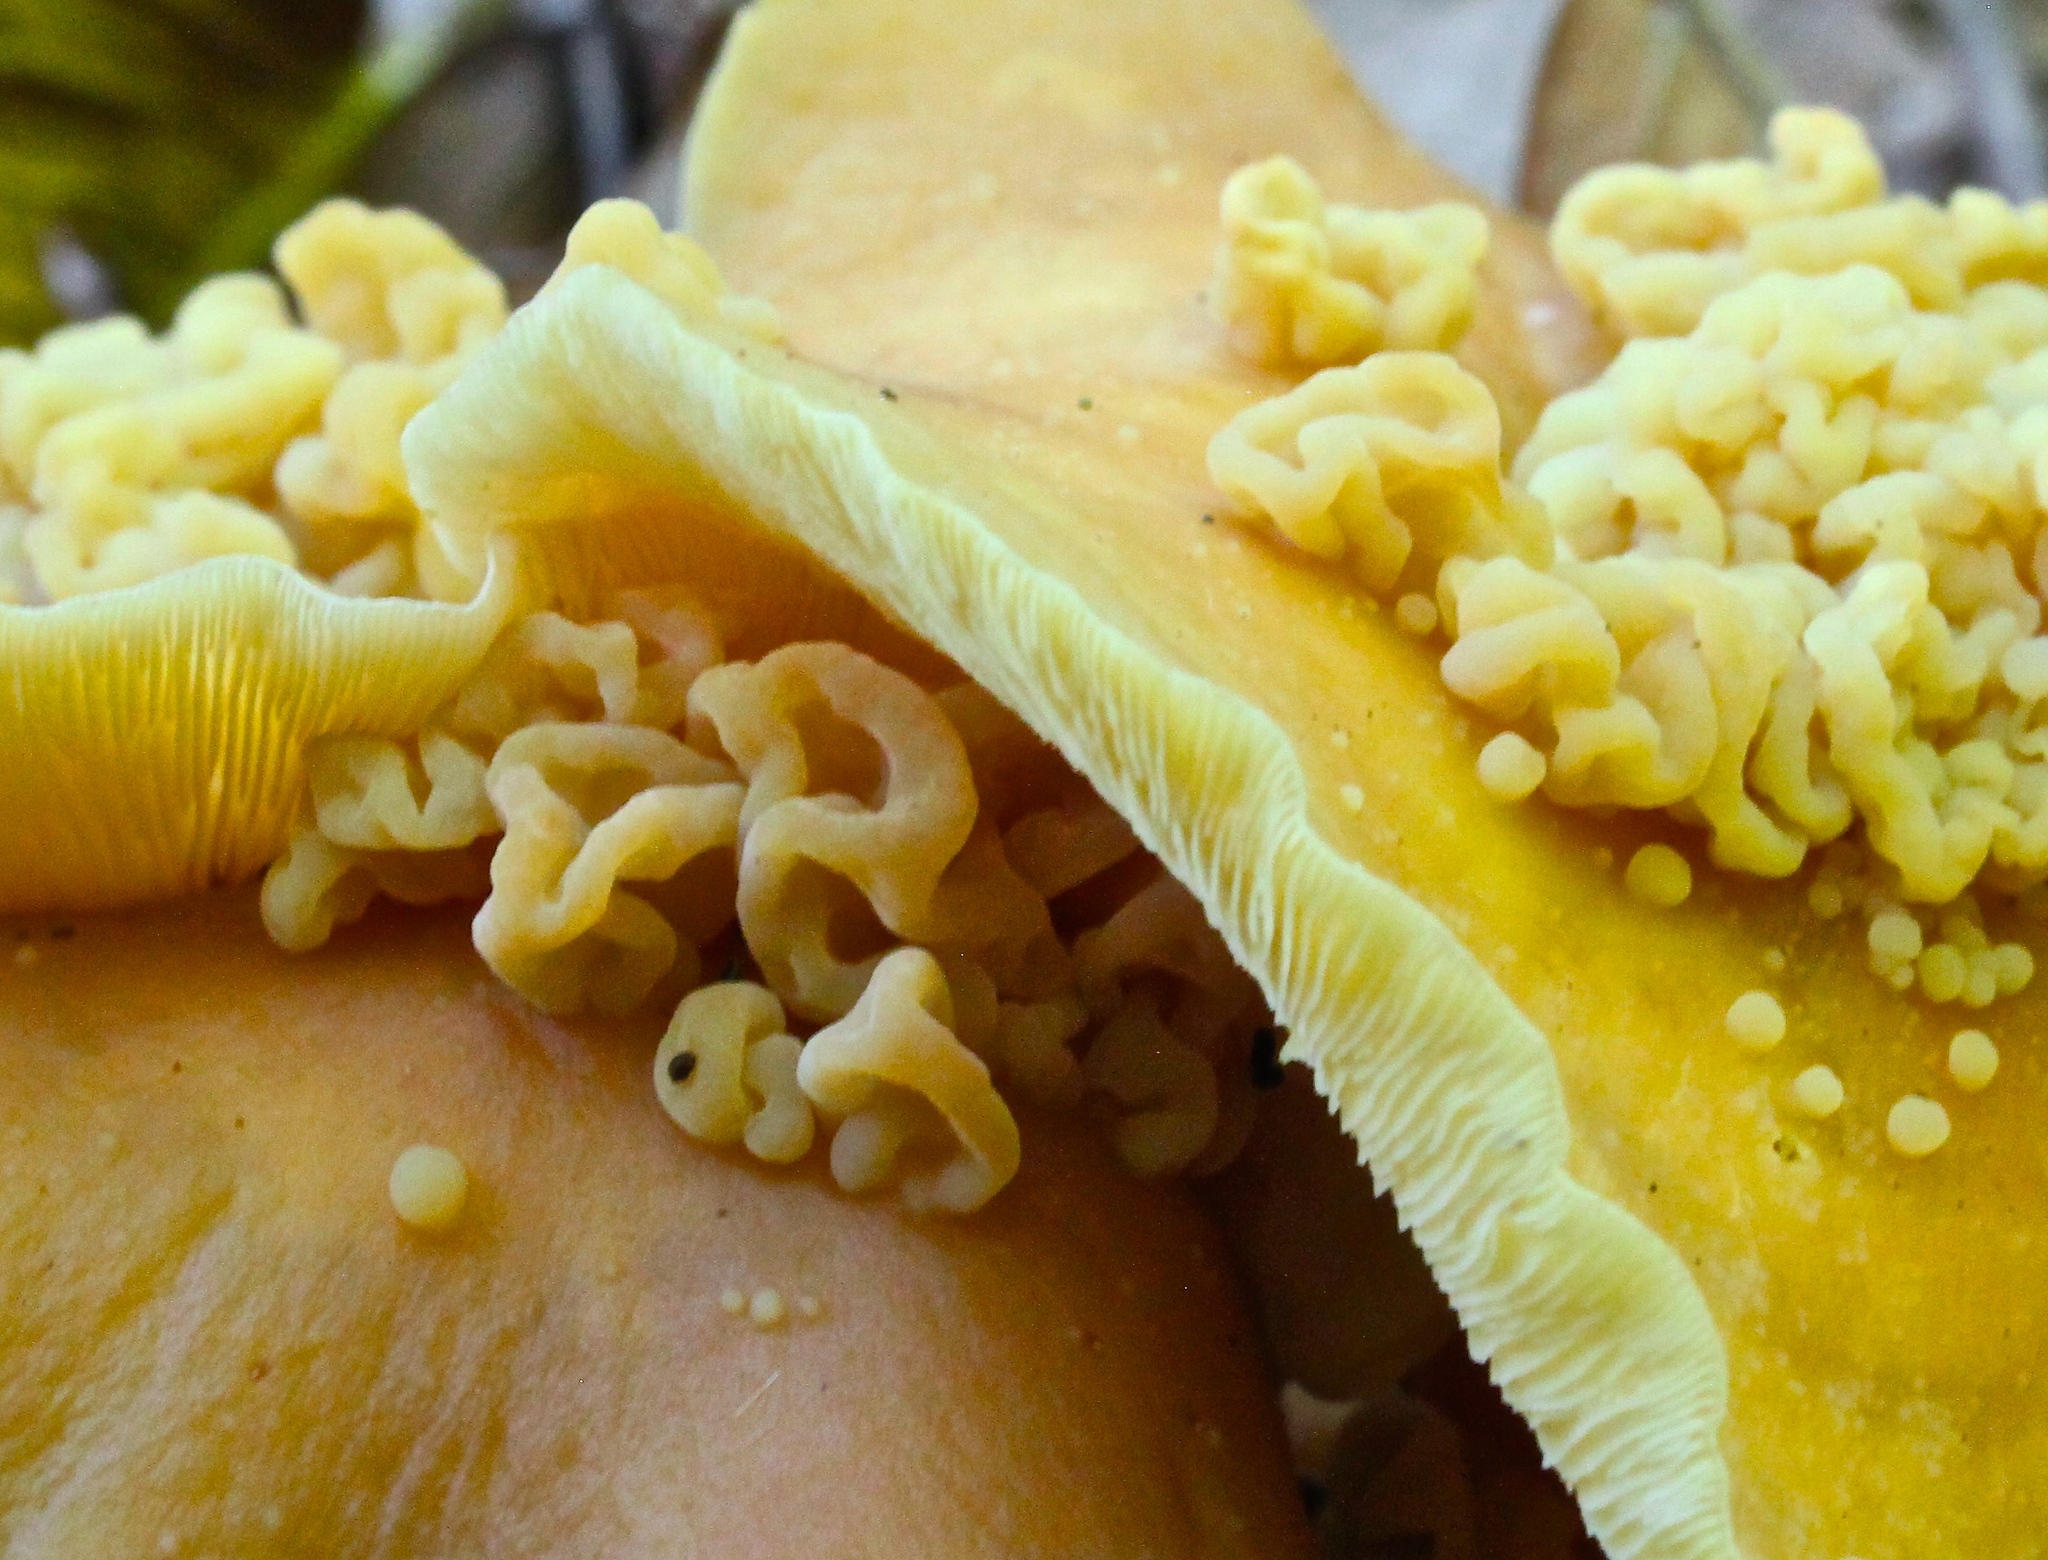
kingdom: Fungi
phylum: Basidiomycota
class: Tremellomycetes
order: Filobasidiales
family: Filobasidiaceae
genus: Syzygospora
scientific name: Syzygospora mycetophila
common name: Collybia clouds
